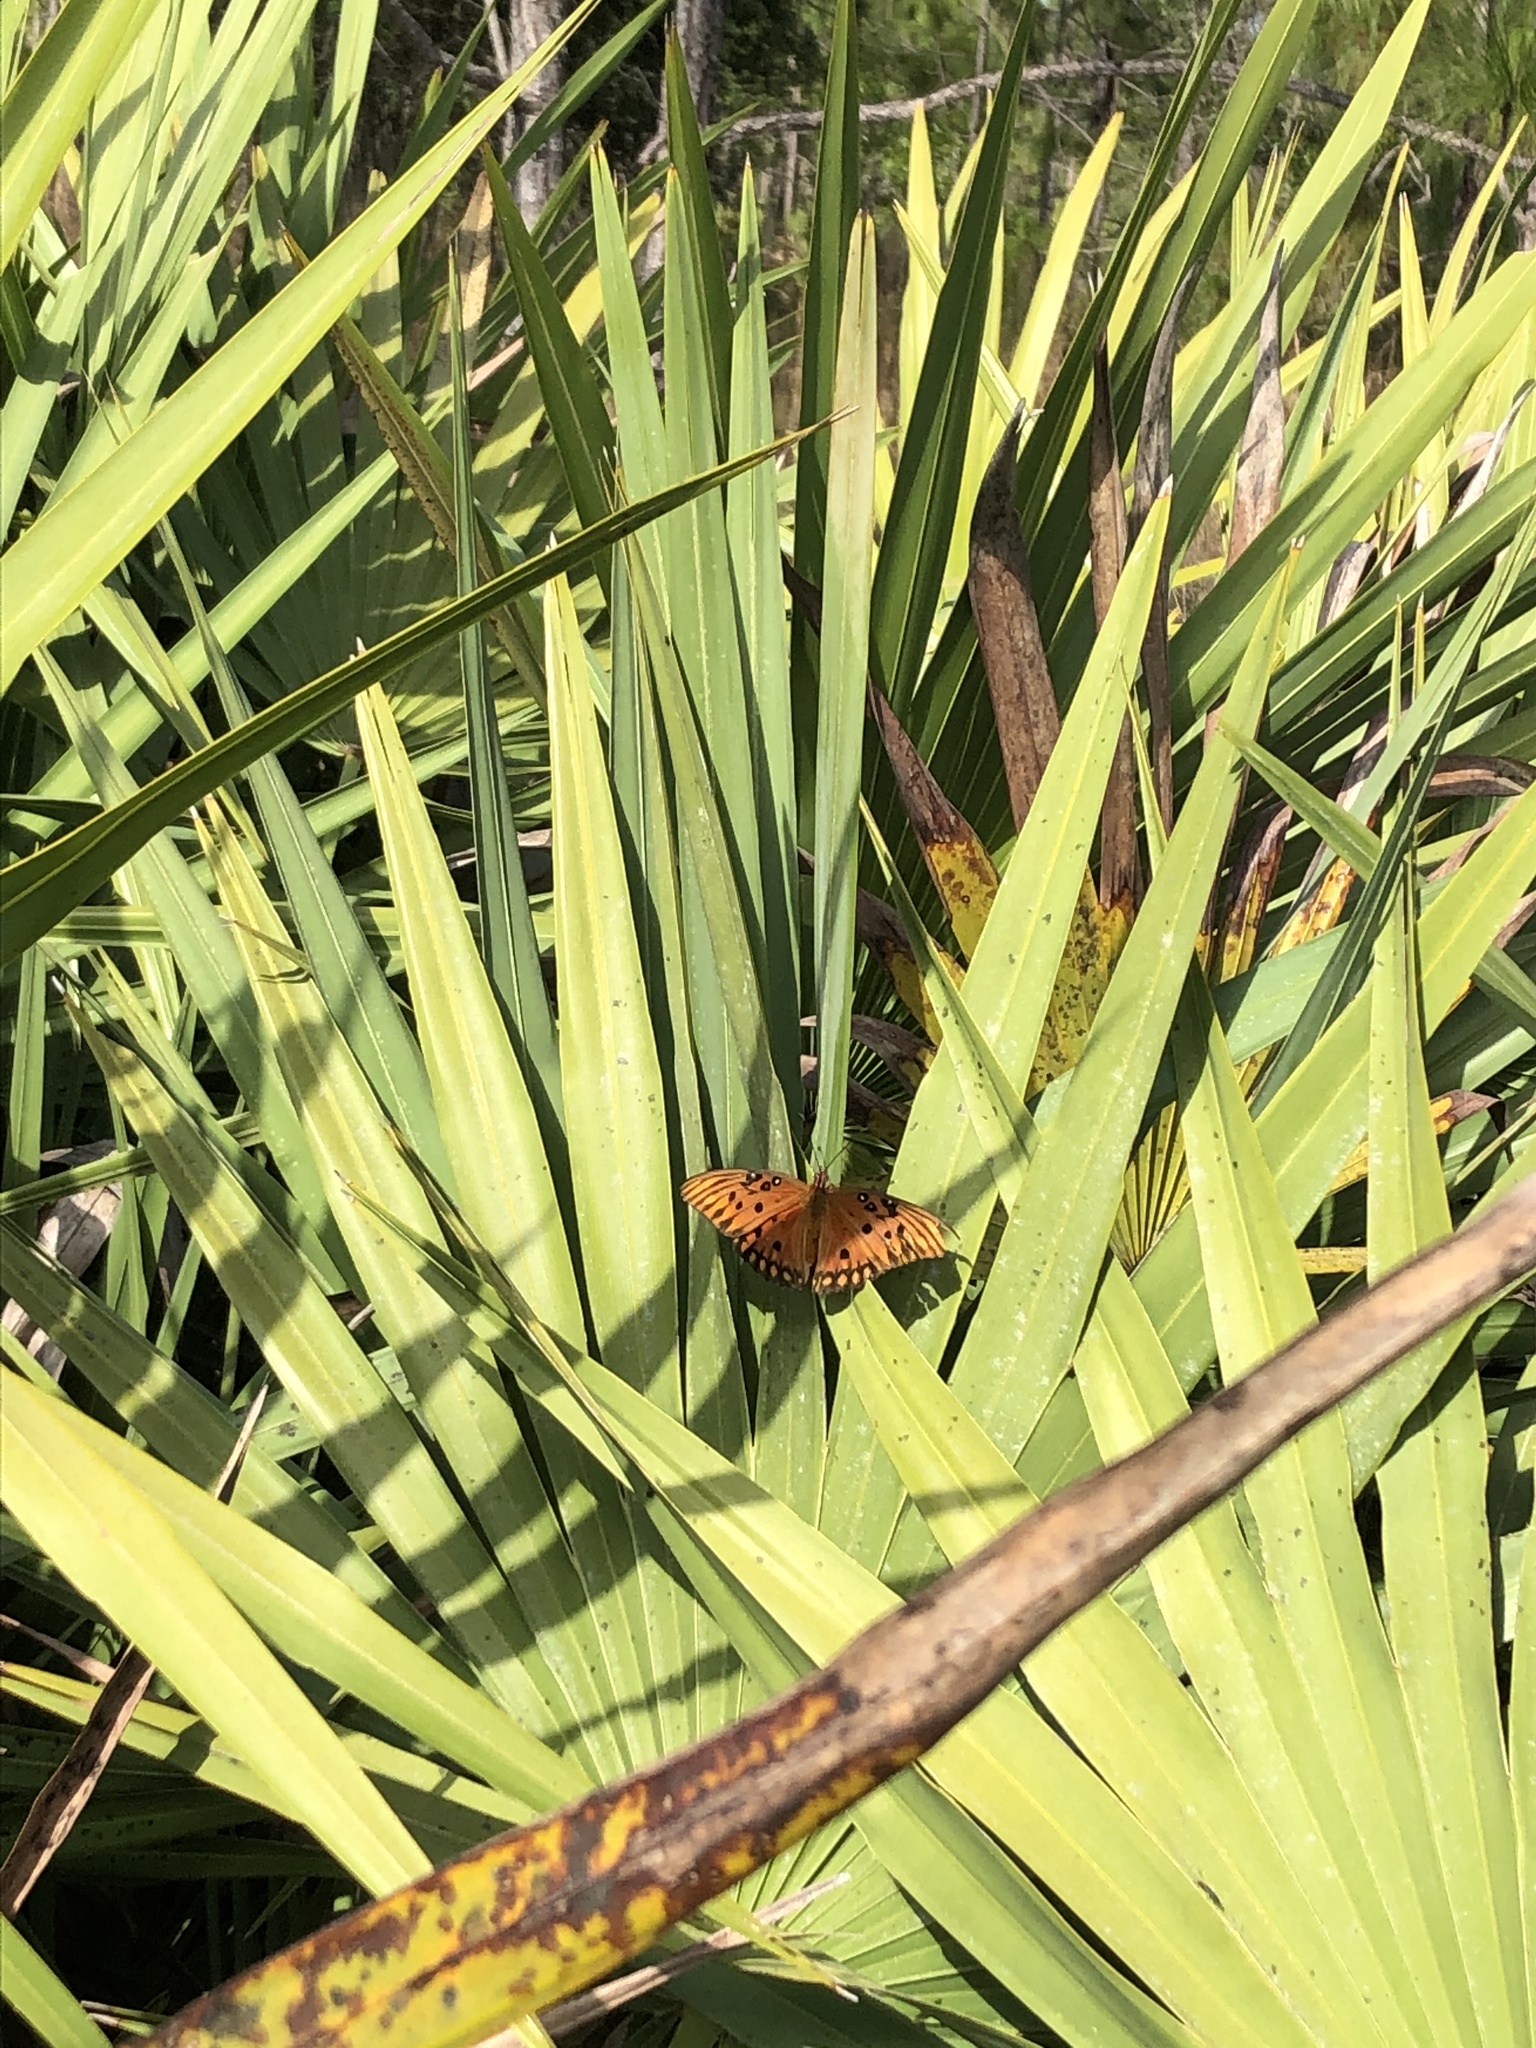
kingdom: Animalia
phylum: Arthropoda
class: Insecta
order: Lepidoptera
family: Nymphalidae
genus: Dione
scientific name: Dione vanillae
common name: Gulf fritillary
